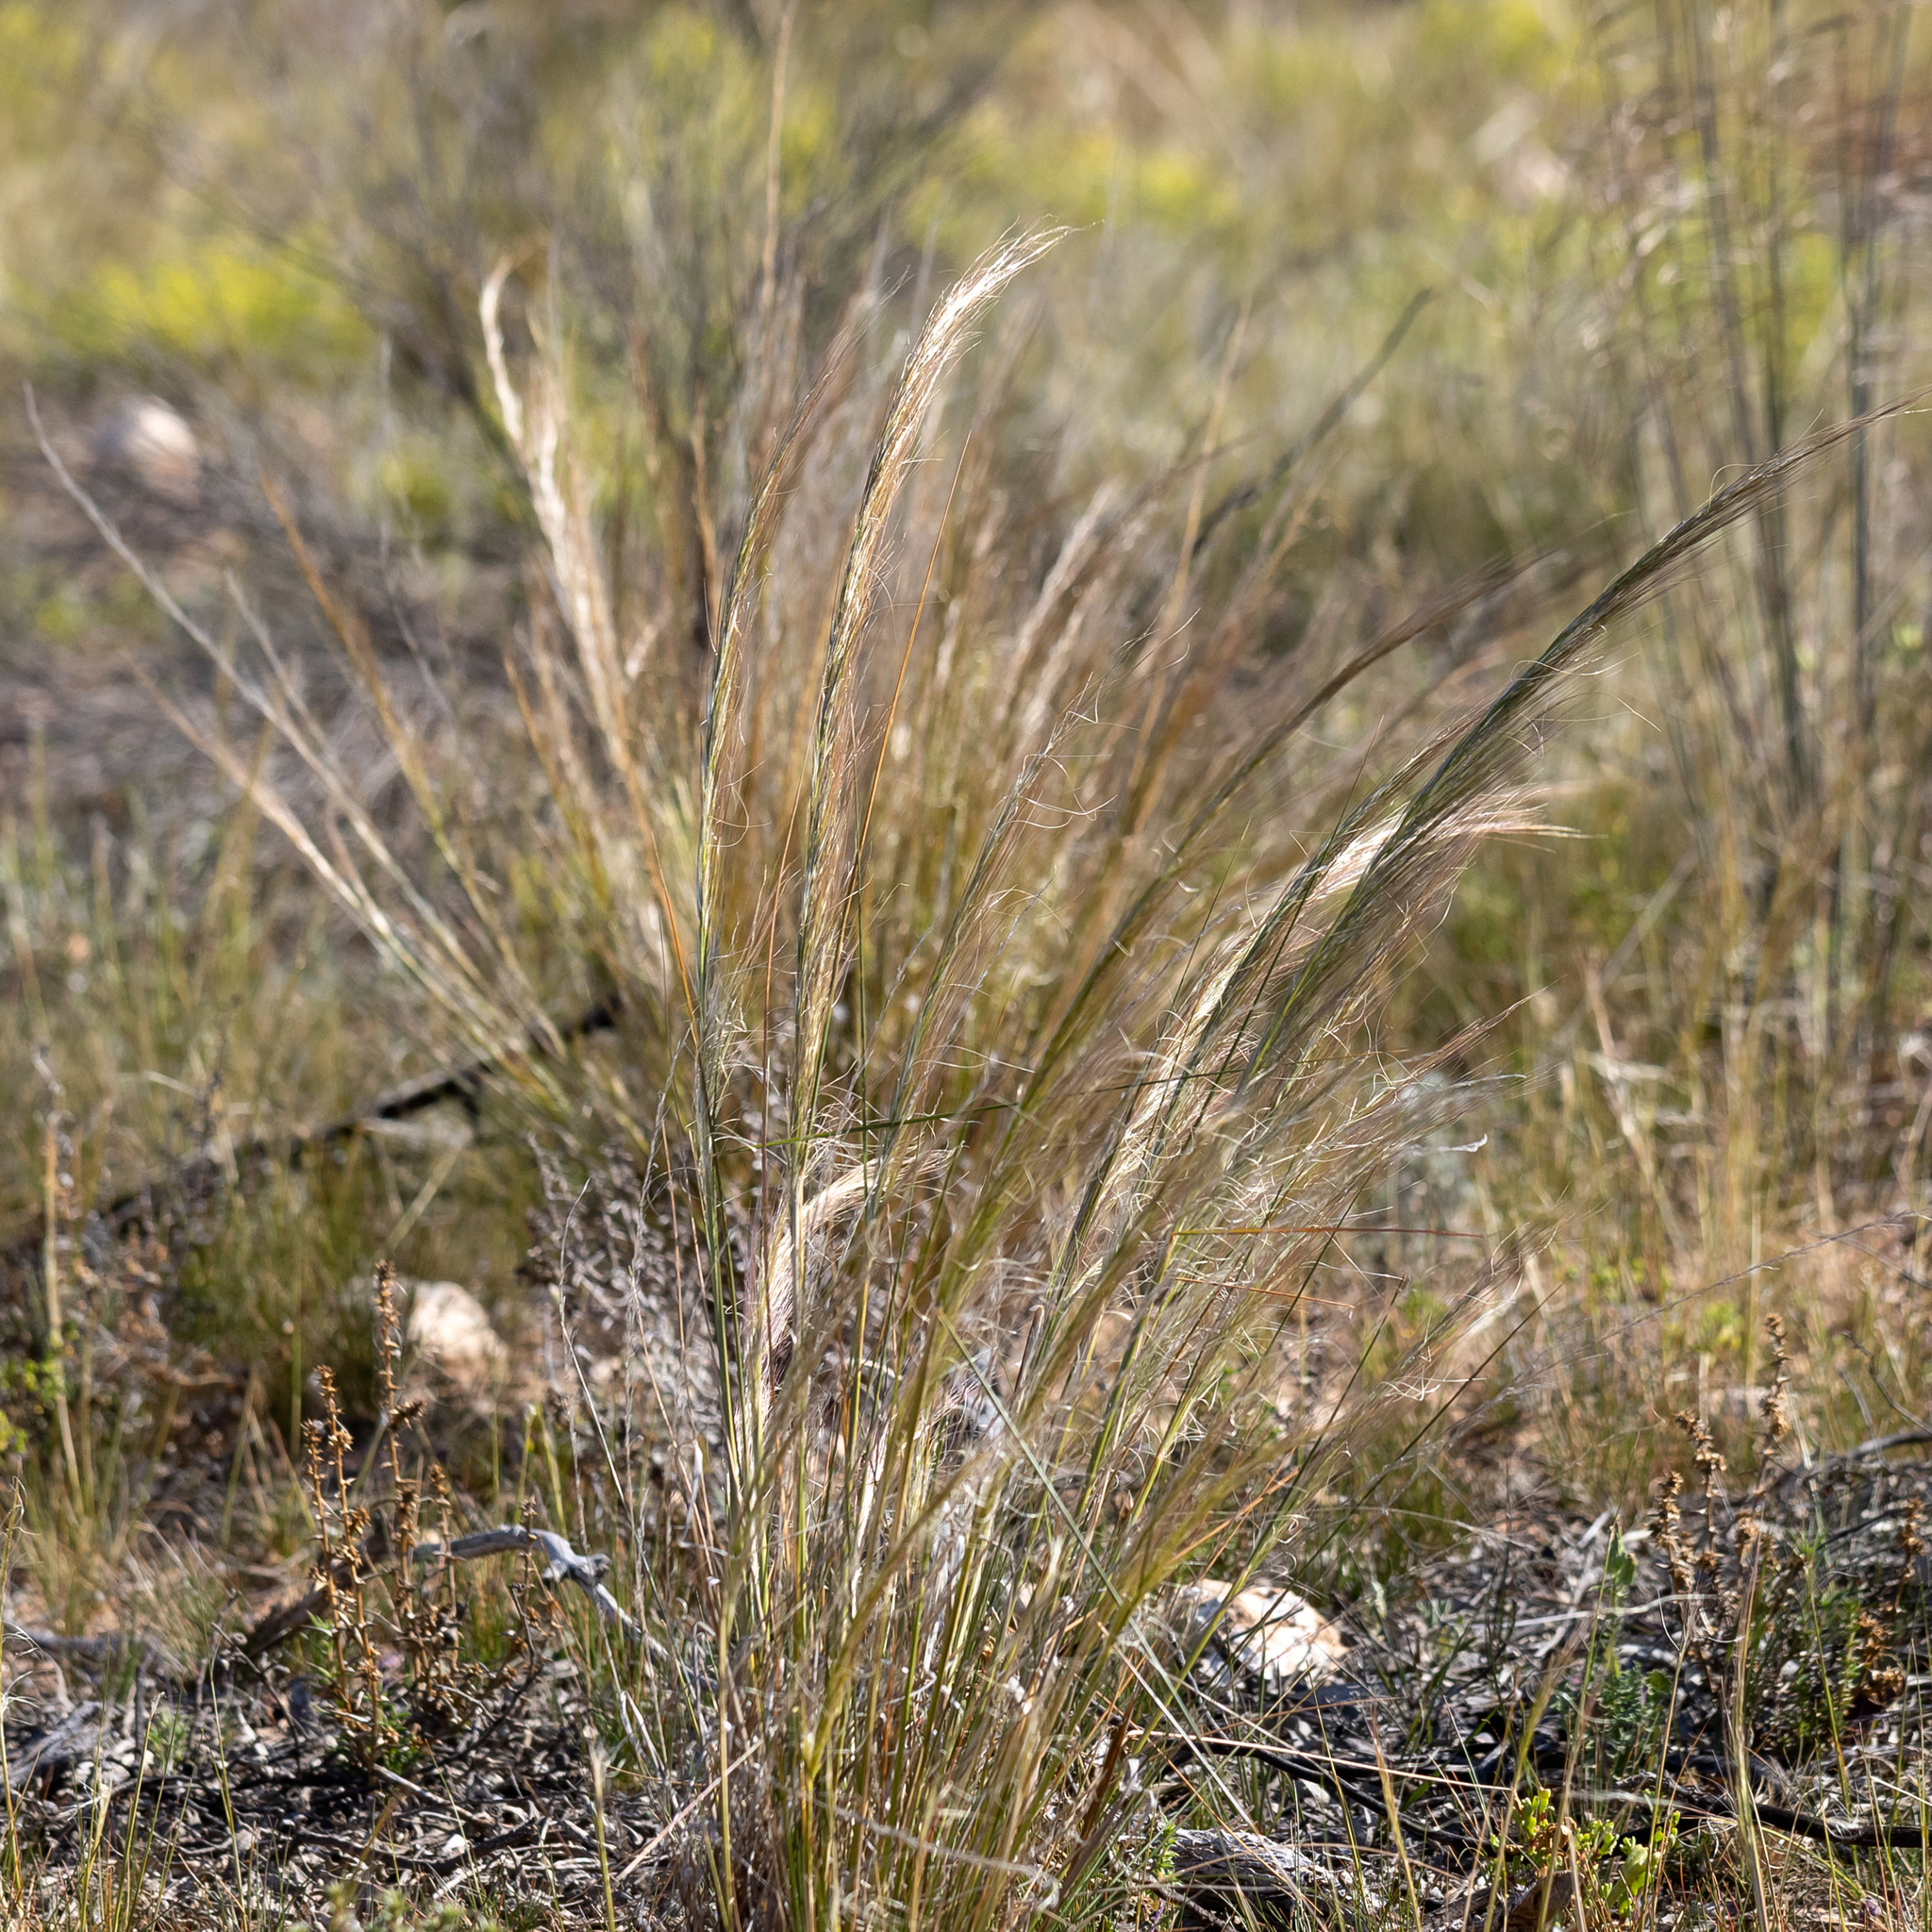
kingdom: Plantae
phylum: Tracheophyta
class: Liliopsida
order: Poales
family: Poaceae
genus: Austrostipa
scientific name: Austrostipa nitida
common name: Balcarra grass
